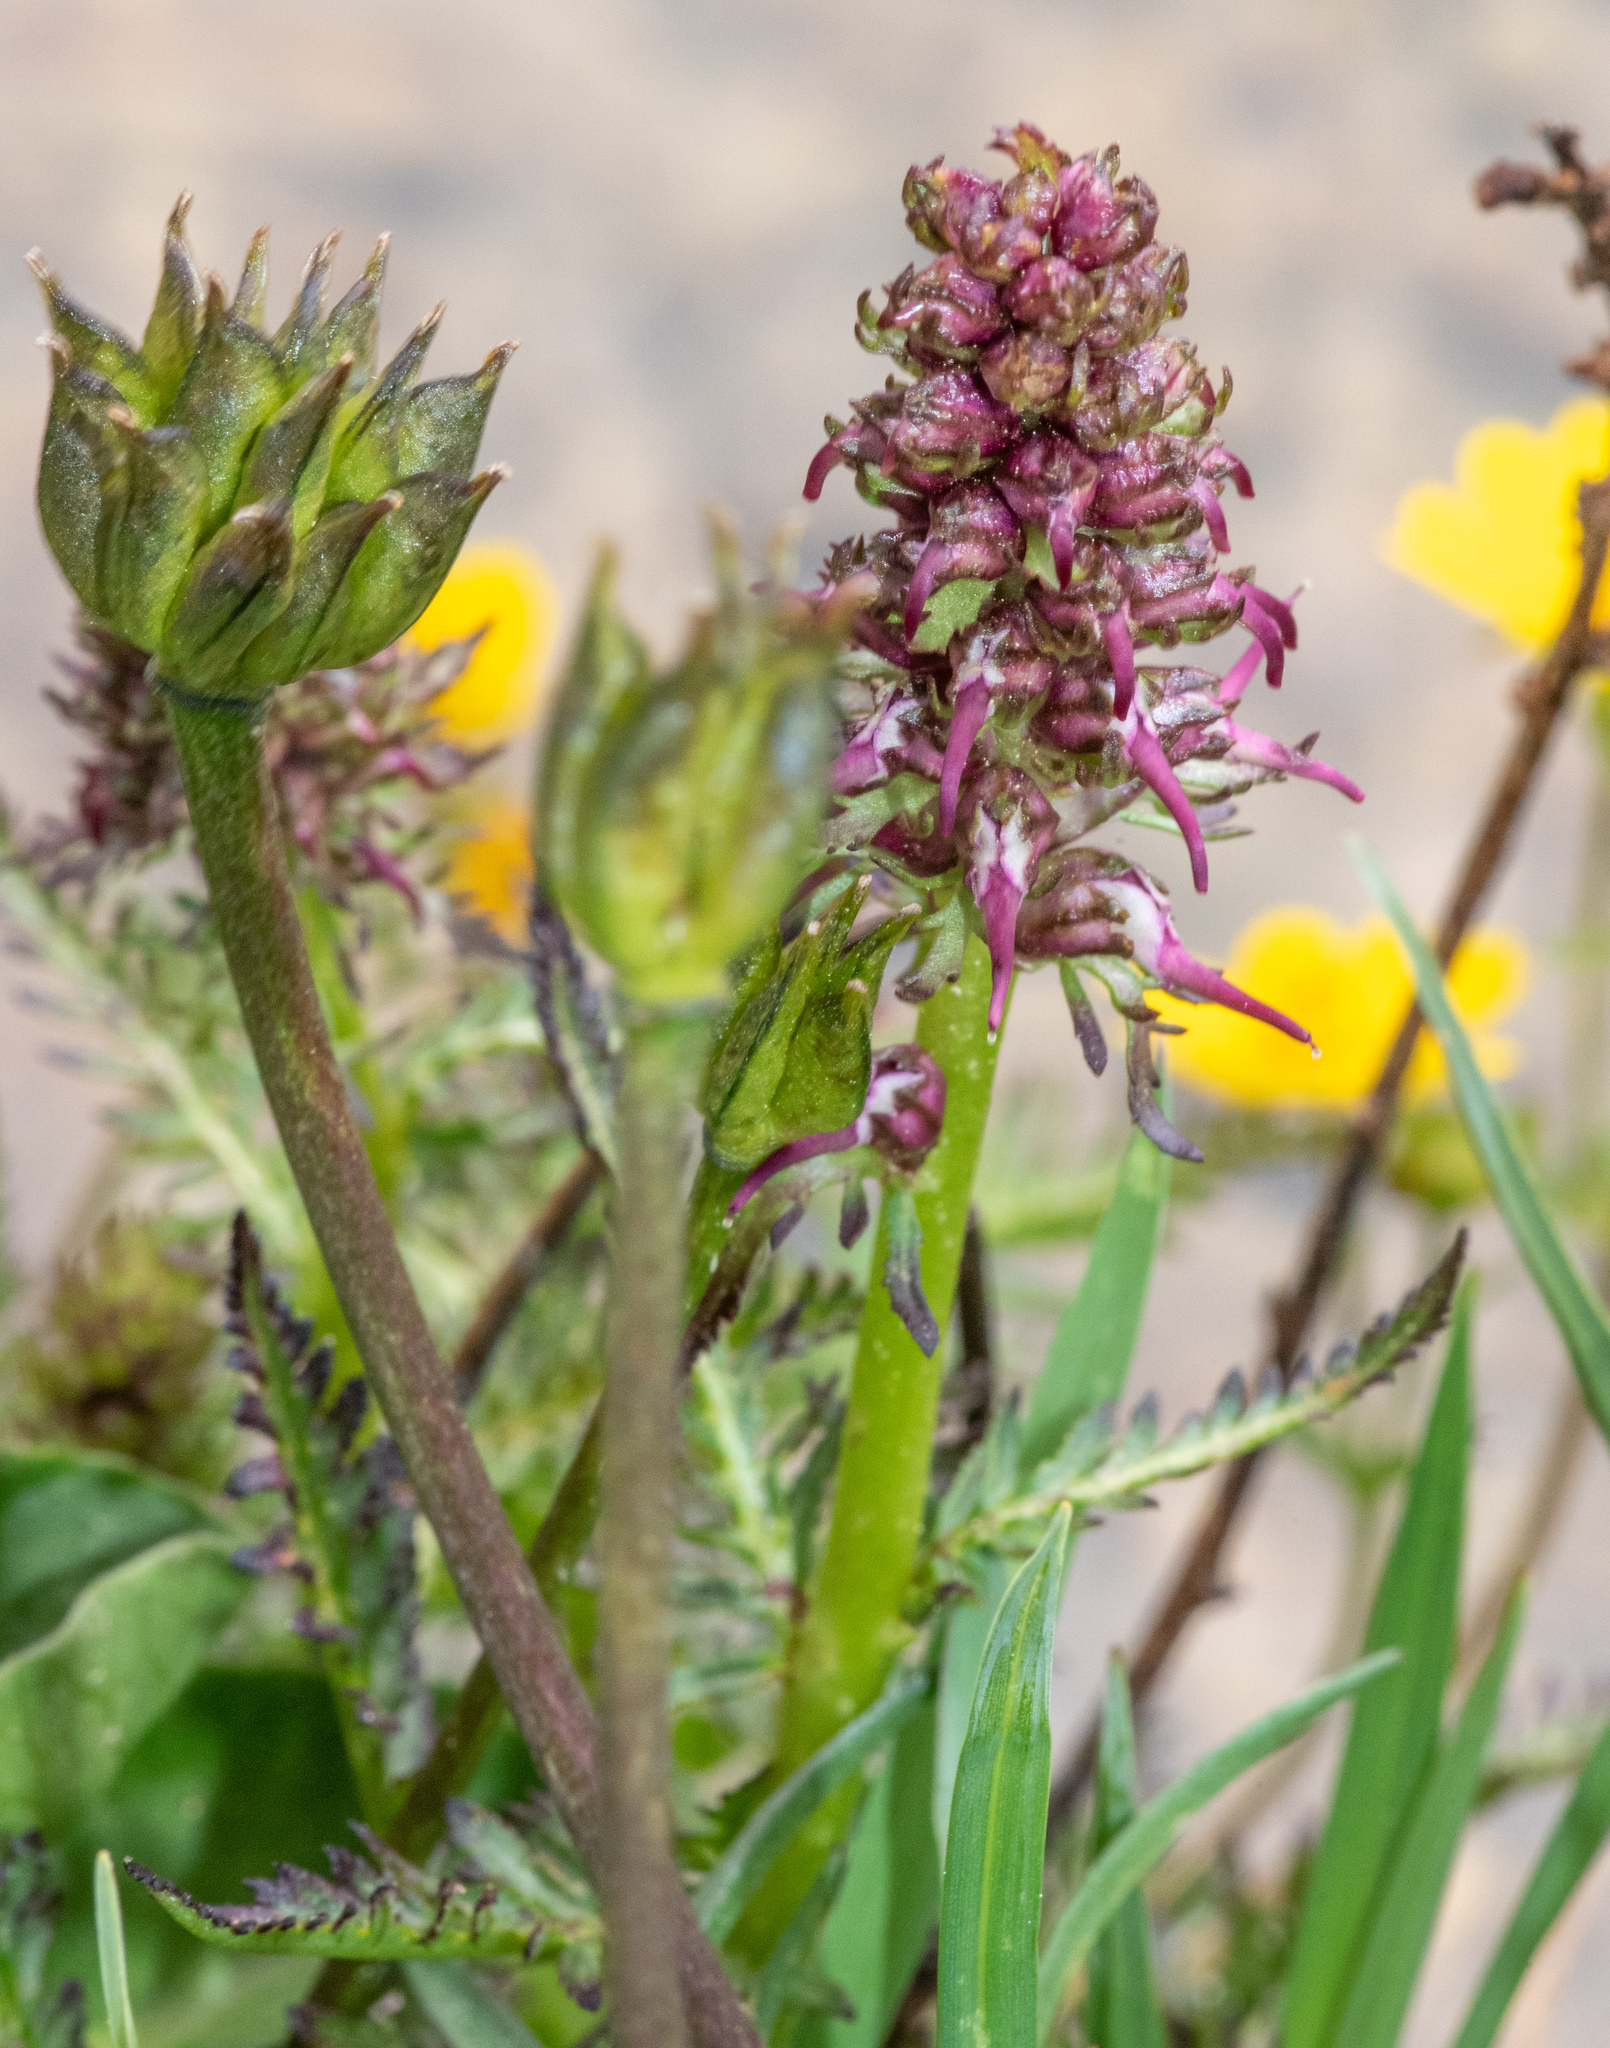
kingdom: Plantae
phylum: Tracheophyta
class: Magnoliopsida
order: Lamiales
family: Orobanchaceae
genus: Pedicularis
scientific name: Pedicularis groenlandica
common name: Elephant's-head
